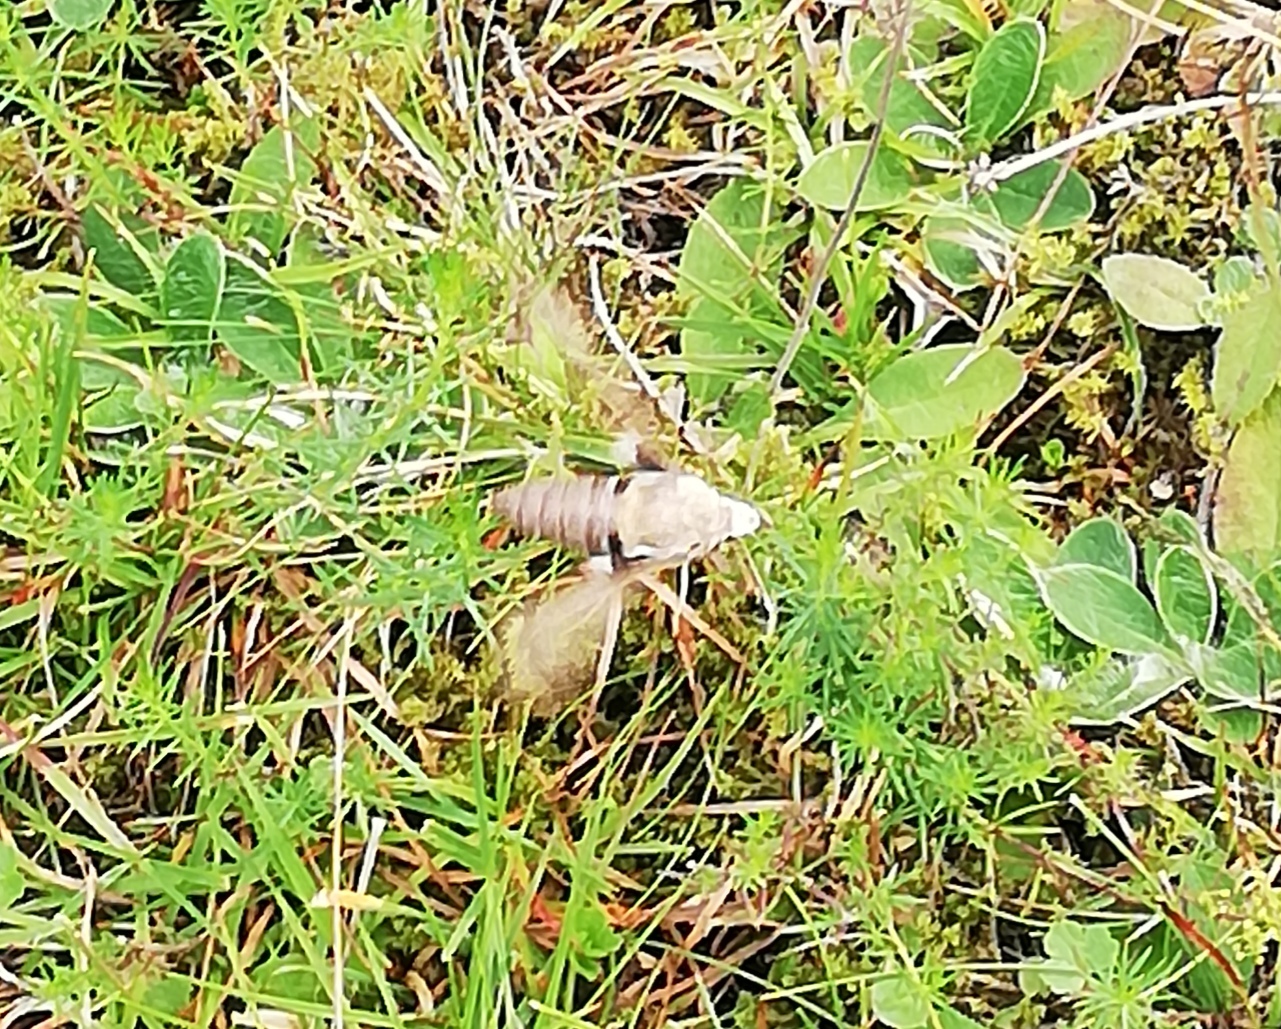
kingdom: Animalia
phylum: Arthropoda
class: Insecta
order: Lepidoptera
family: Sphingidae
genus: Hyles
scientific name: Hyles gallii
